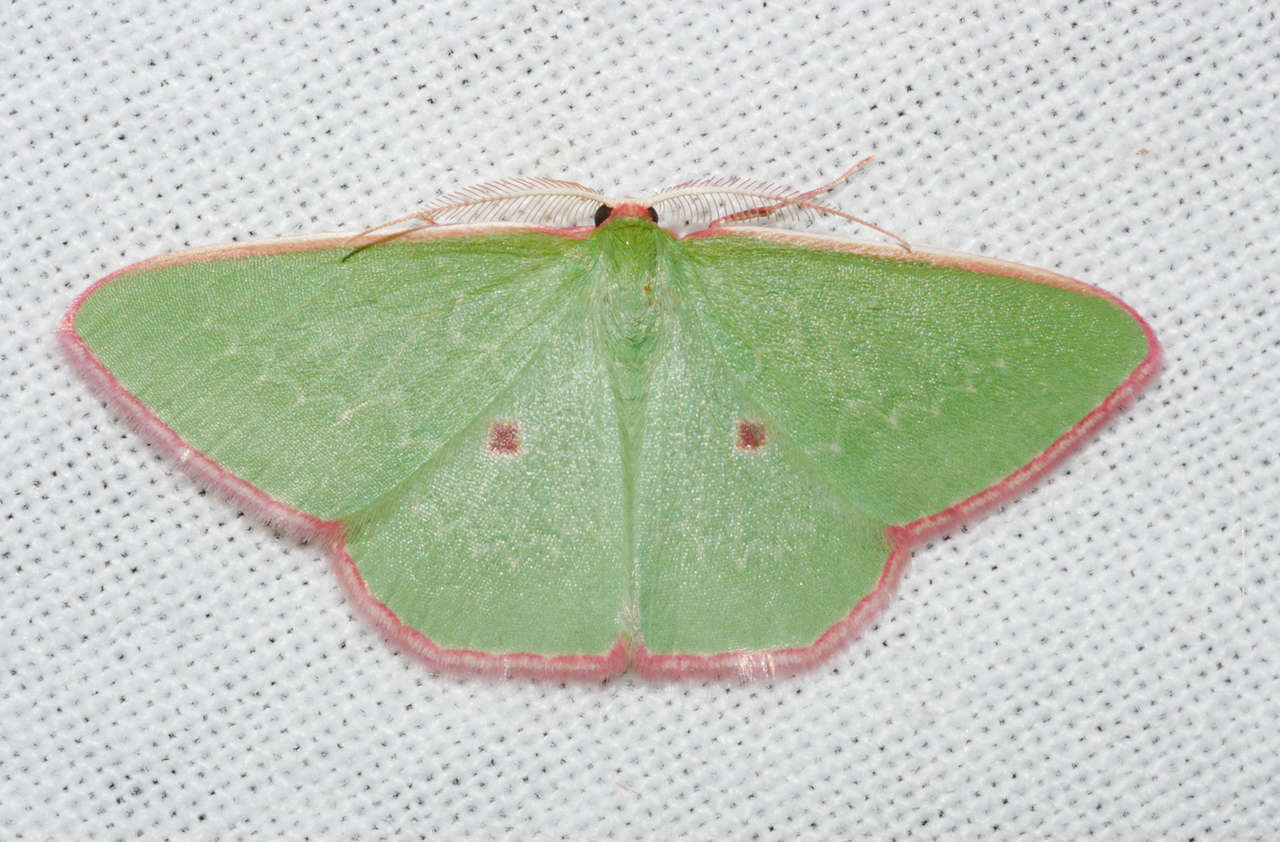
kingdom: Animalia
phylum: Arthropoda
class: Insecta
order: Lepidoptera
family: Geometridae
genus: Chlorocoma
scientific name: Chlorocoma cadmaria
